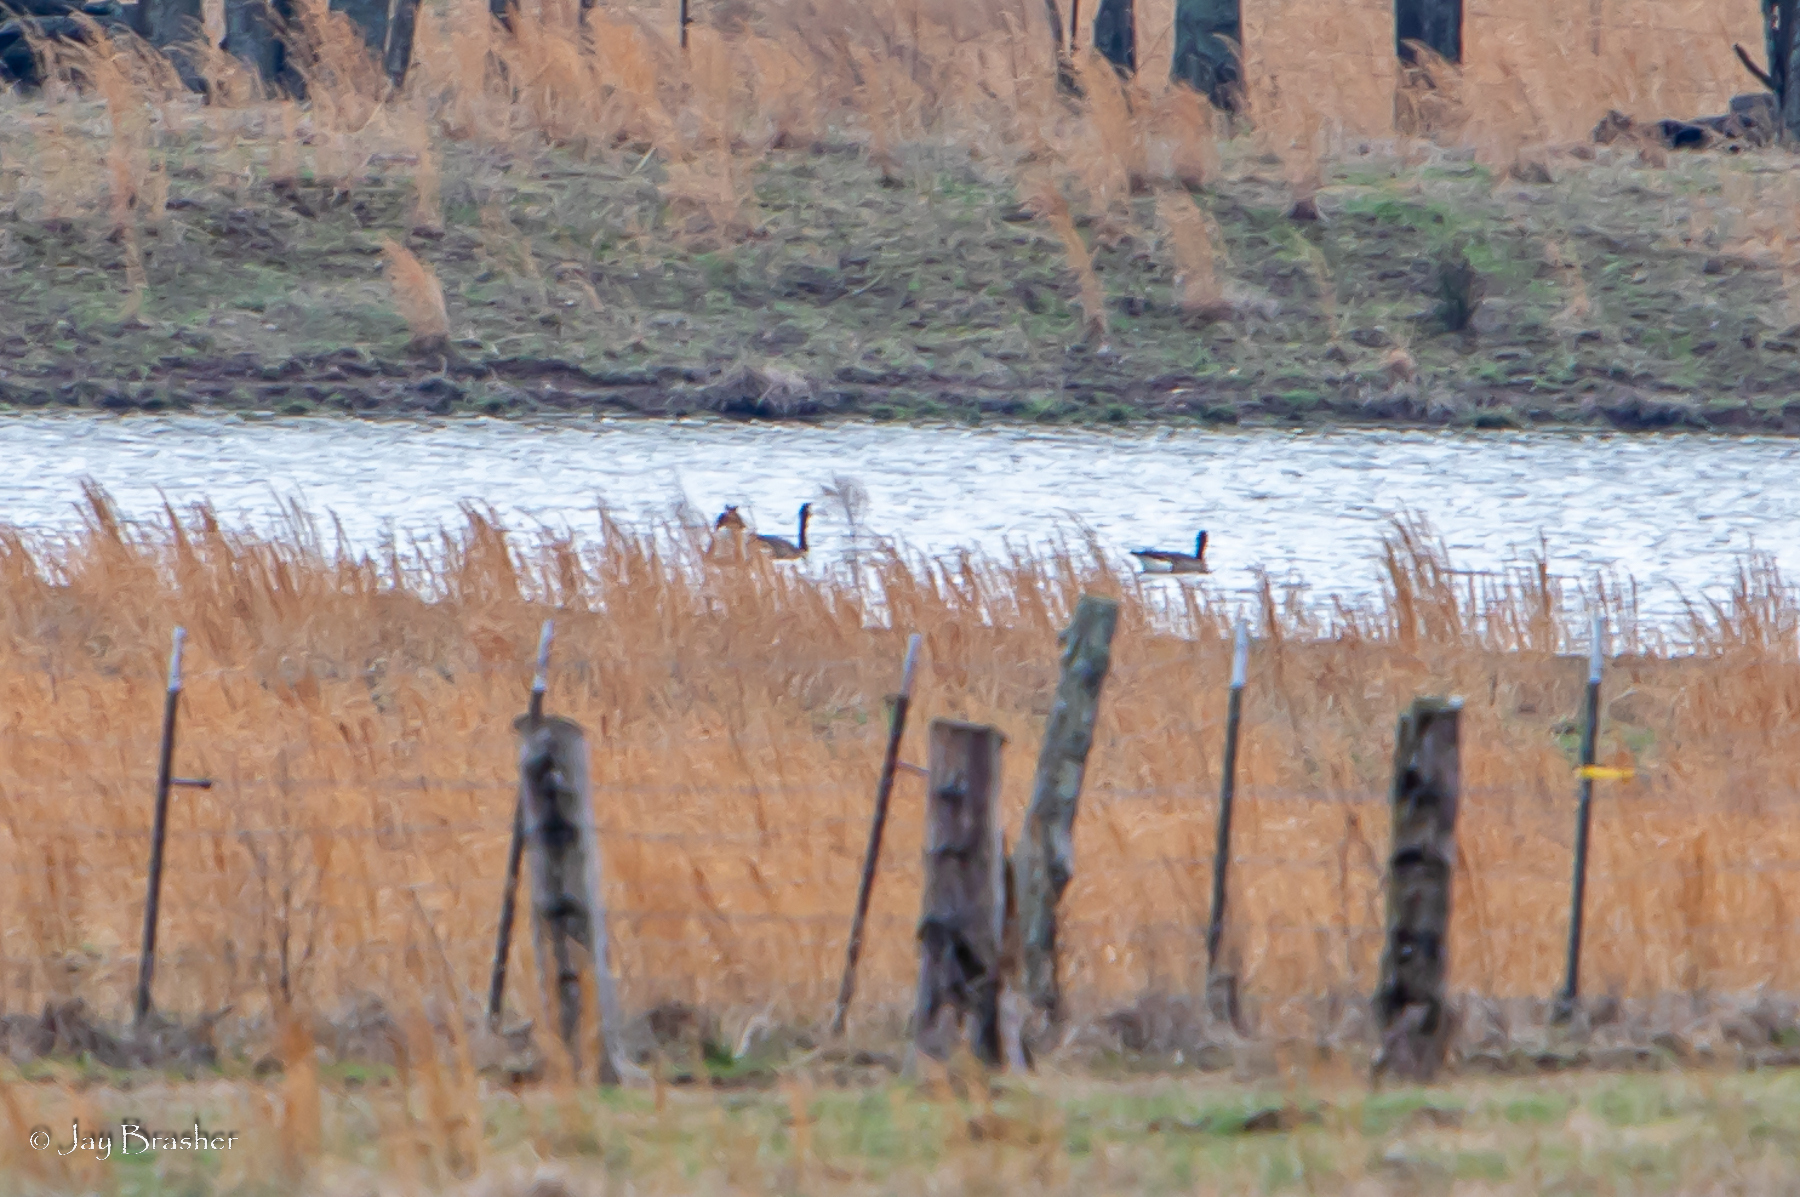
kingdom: Animalia
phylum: Chordata
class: Aves
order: Anseriformes
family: Anatidae
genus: Branta
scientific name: Branta canadensis
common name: Canada goose
